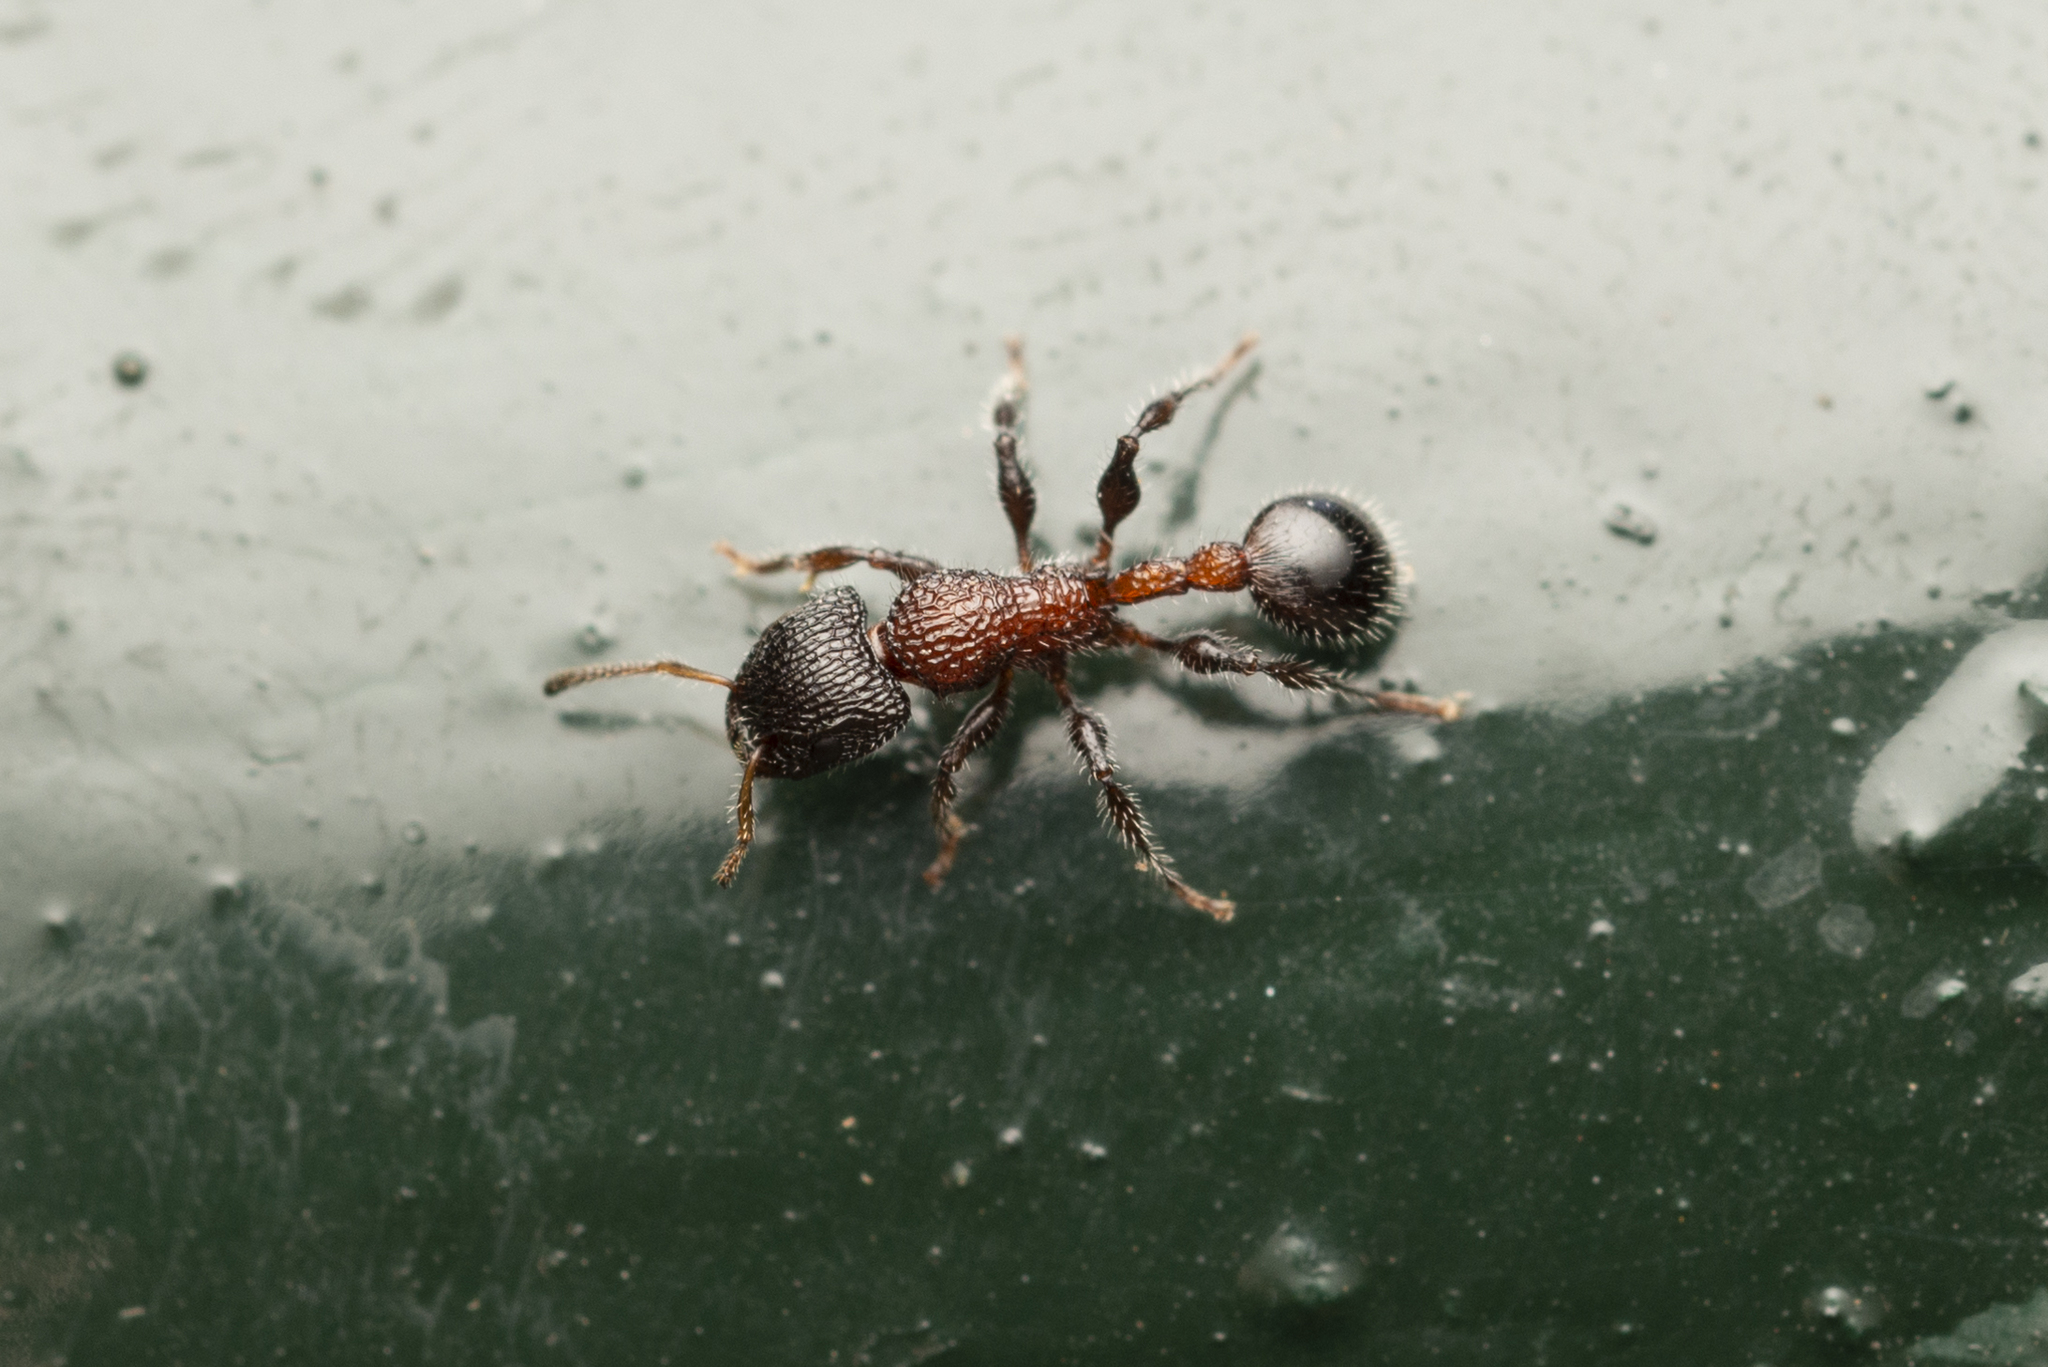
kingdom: Animalia
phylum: Arthropoda
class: Insecta
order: Hymenoptera
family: Formicidae
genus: Dilobocondyla
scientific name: Dilobocondyla fouqueti
